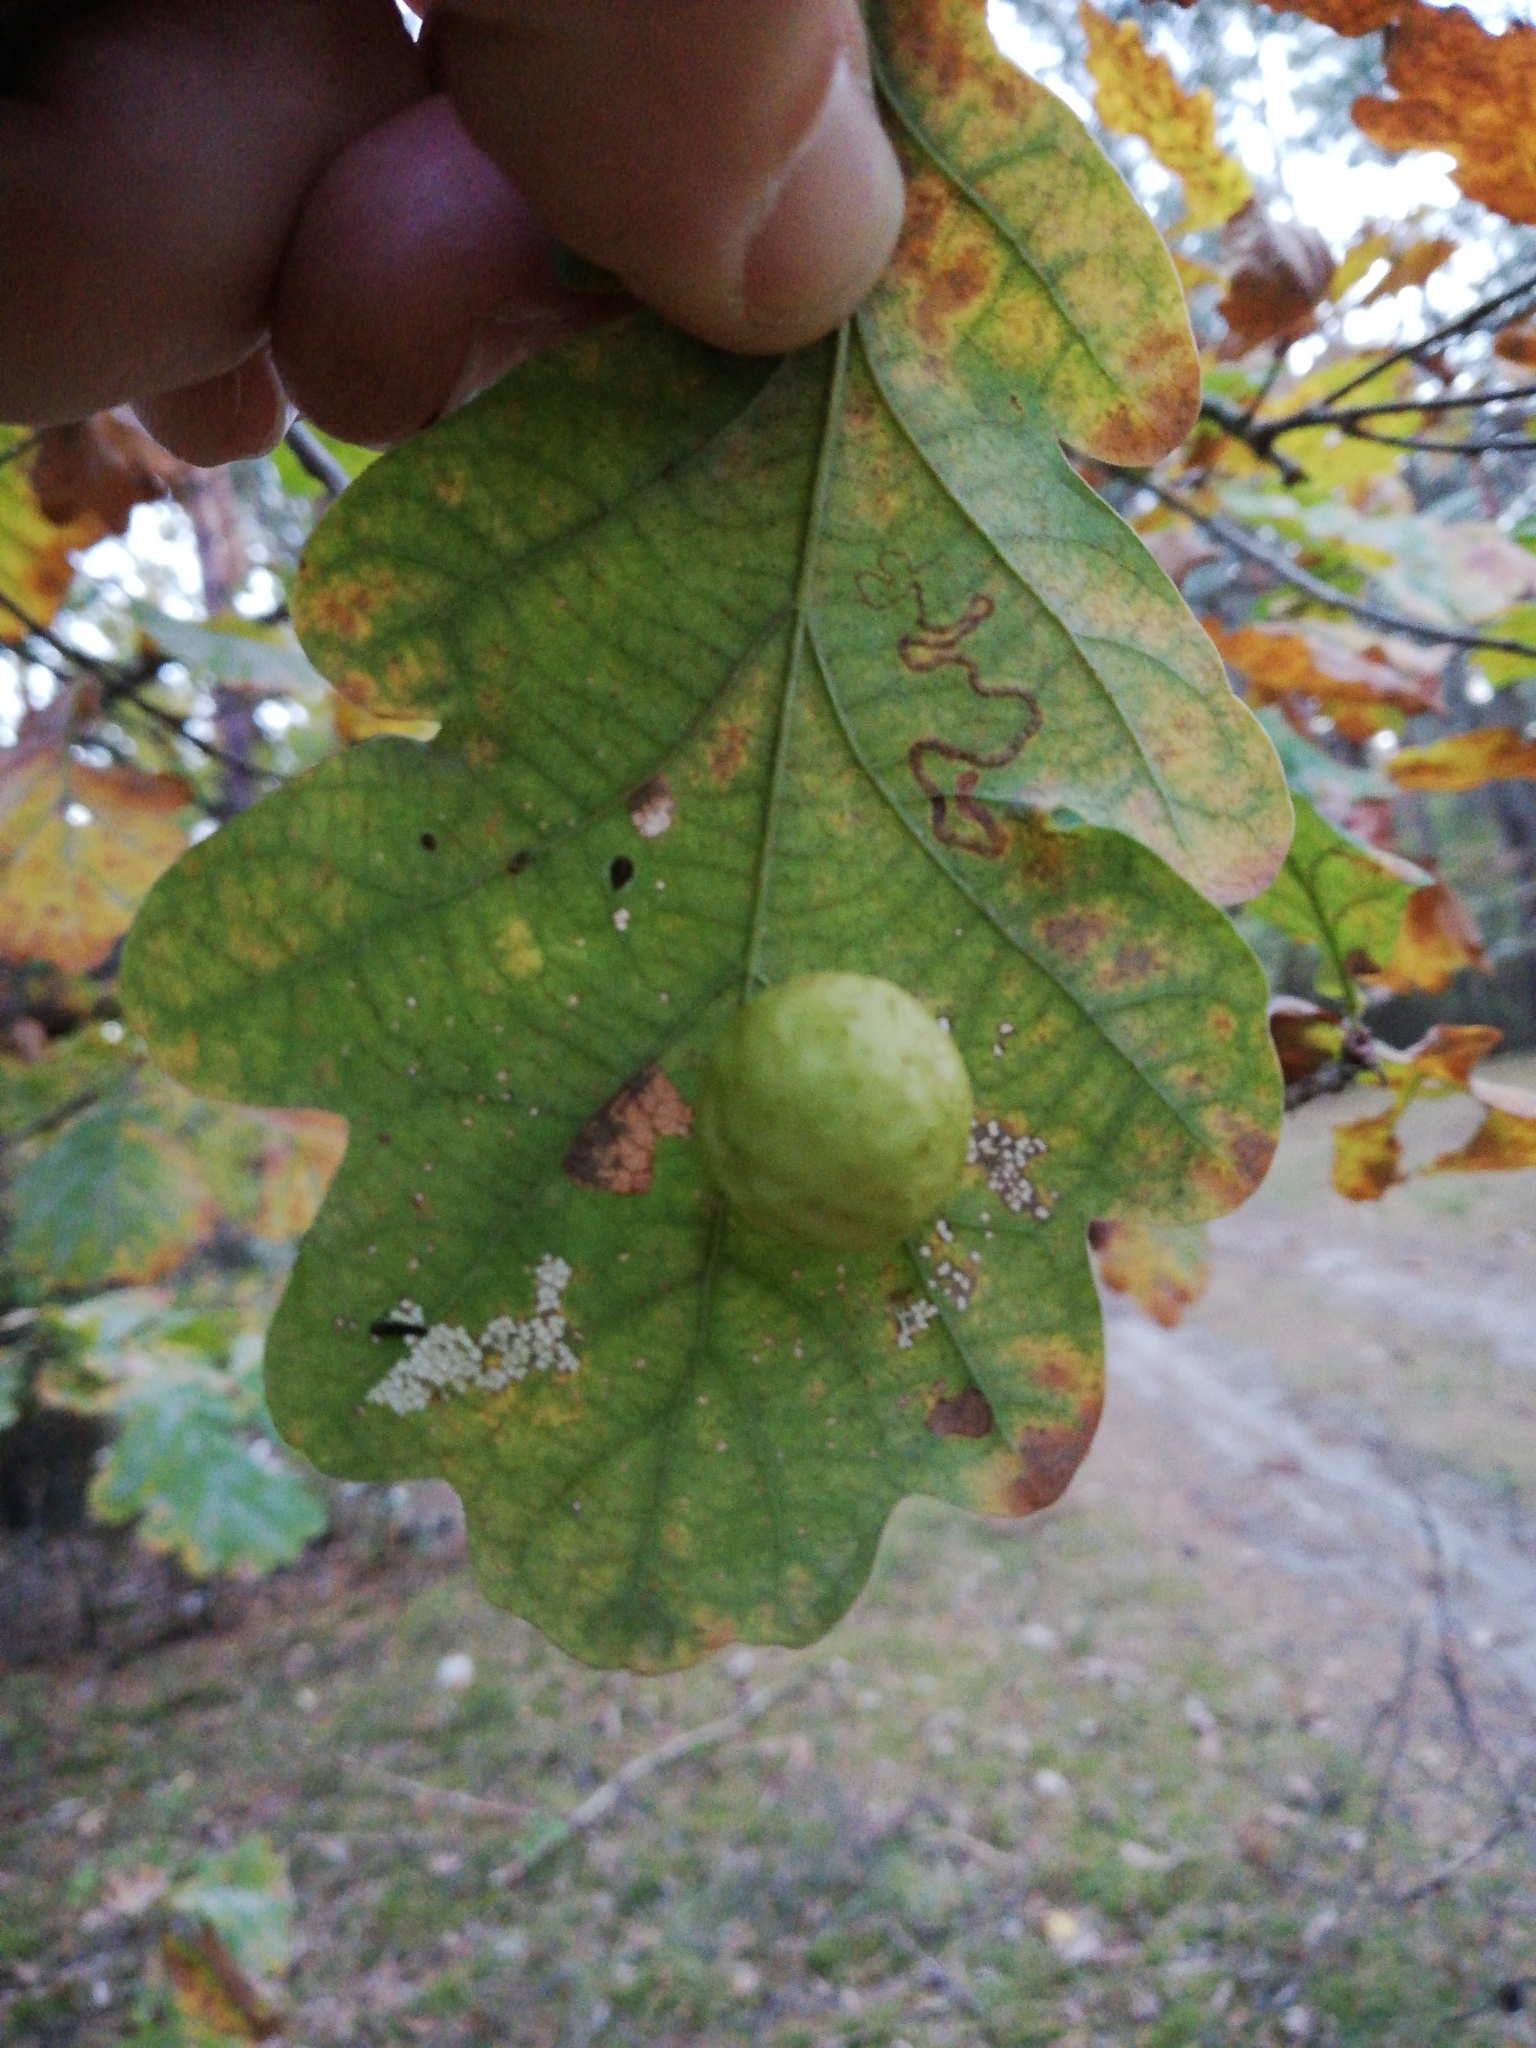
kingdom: Animalia
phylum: Arthropoda
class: Insecta
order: Hymenoptera
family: Cynipidae
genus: Cynips
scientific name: Cynips quercusfolii
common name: Cherry gall
